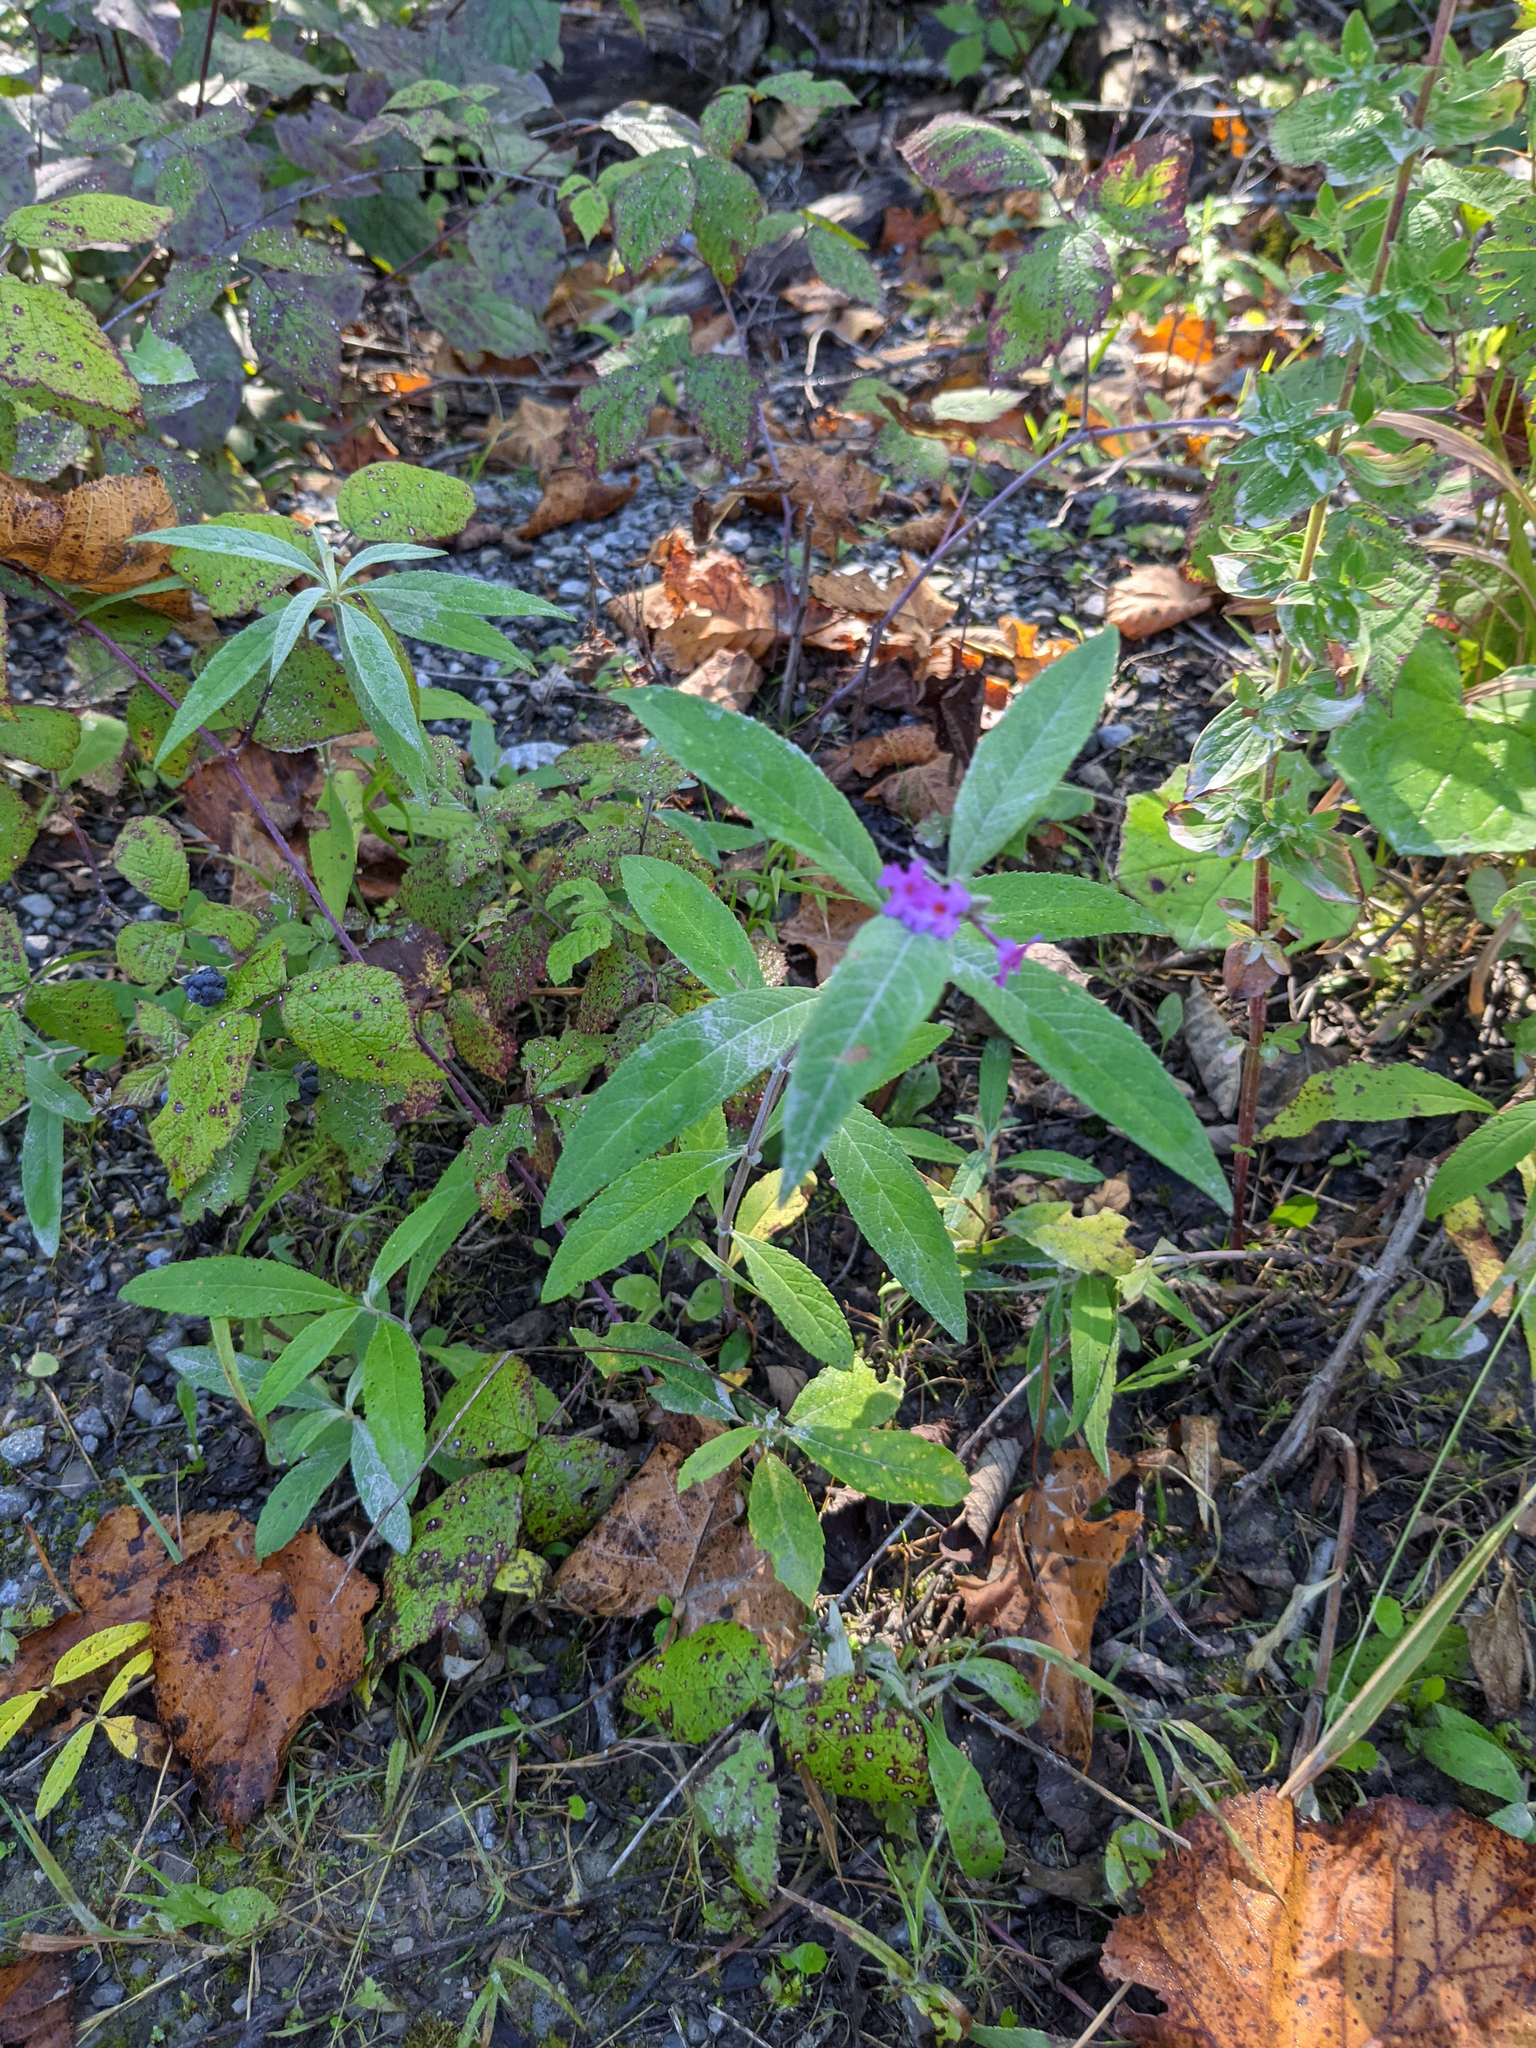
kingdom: Plantae
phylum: Tracheophyta
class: Magnoliopsida
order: Lamiales
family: Scrophulariaceae
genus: Buddleja
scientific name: Buddleja davidii
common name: Butterfly-bush
